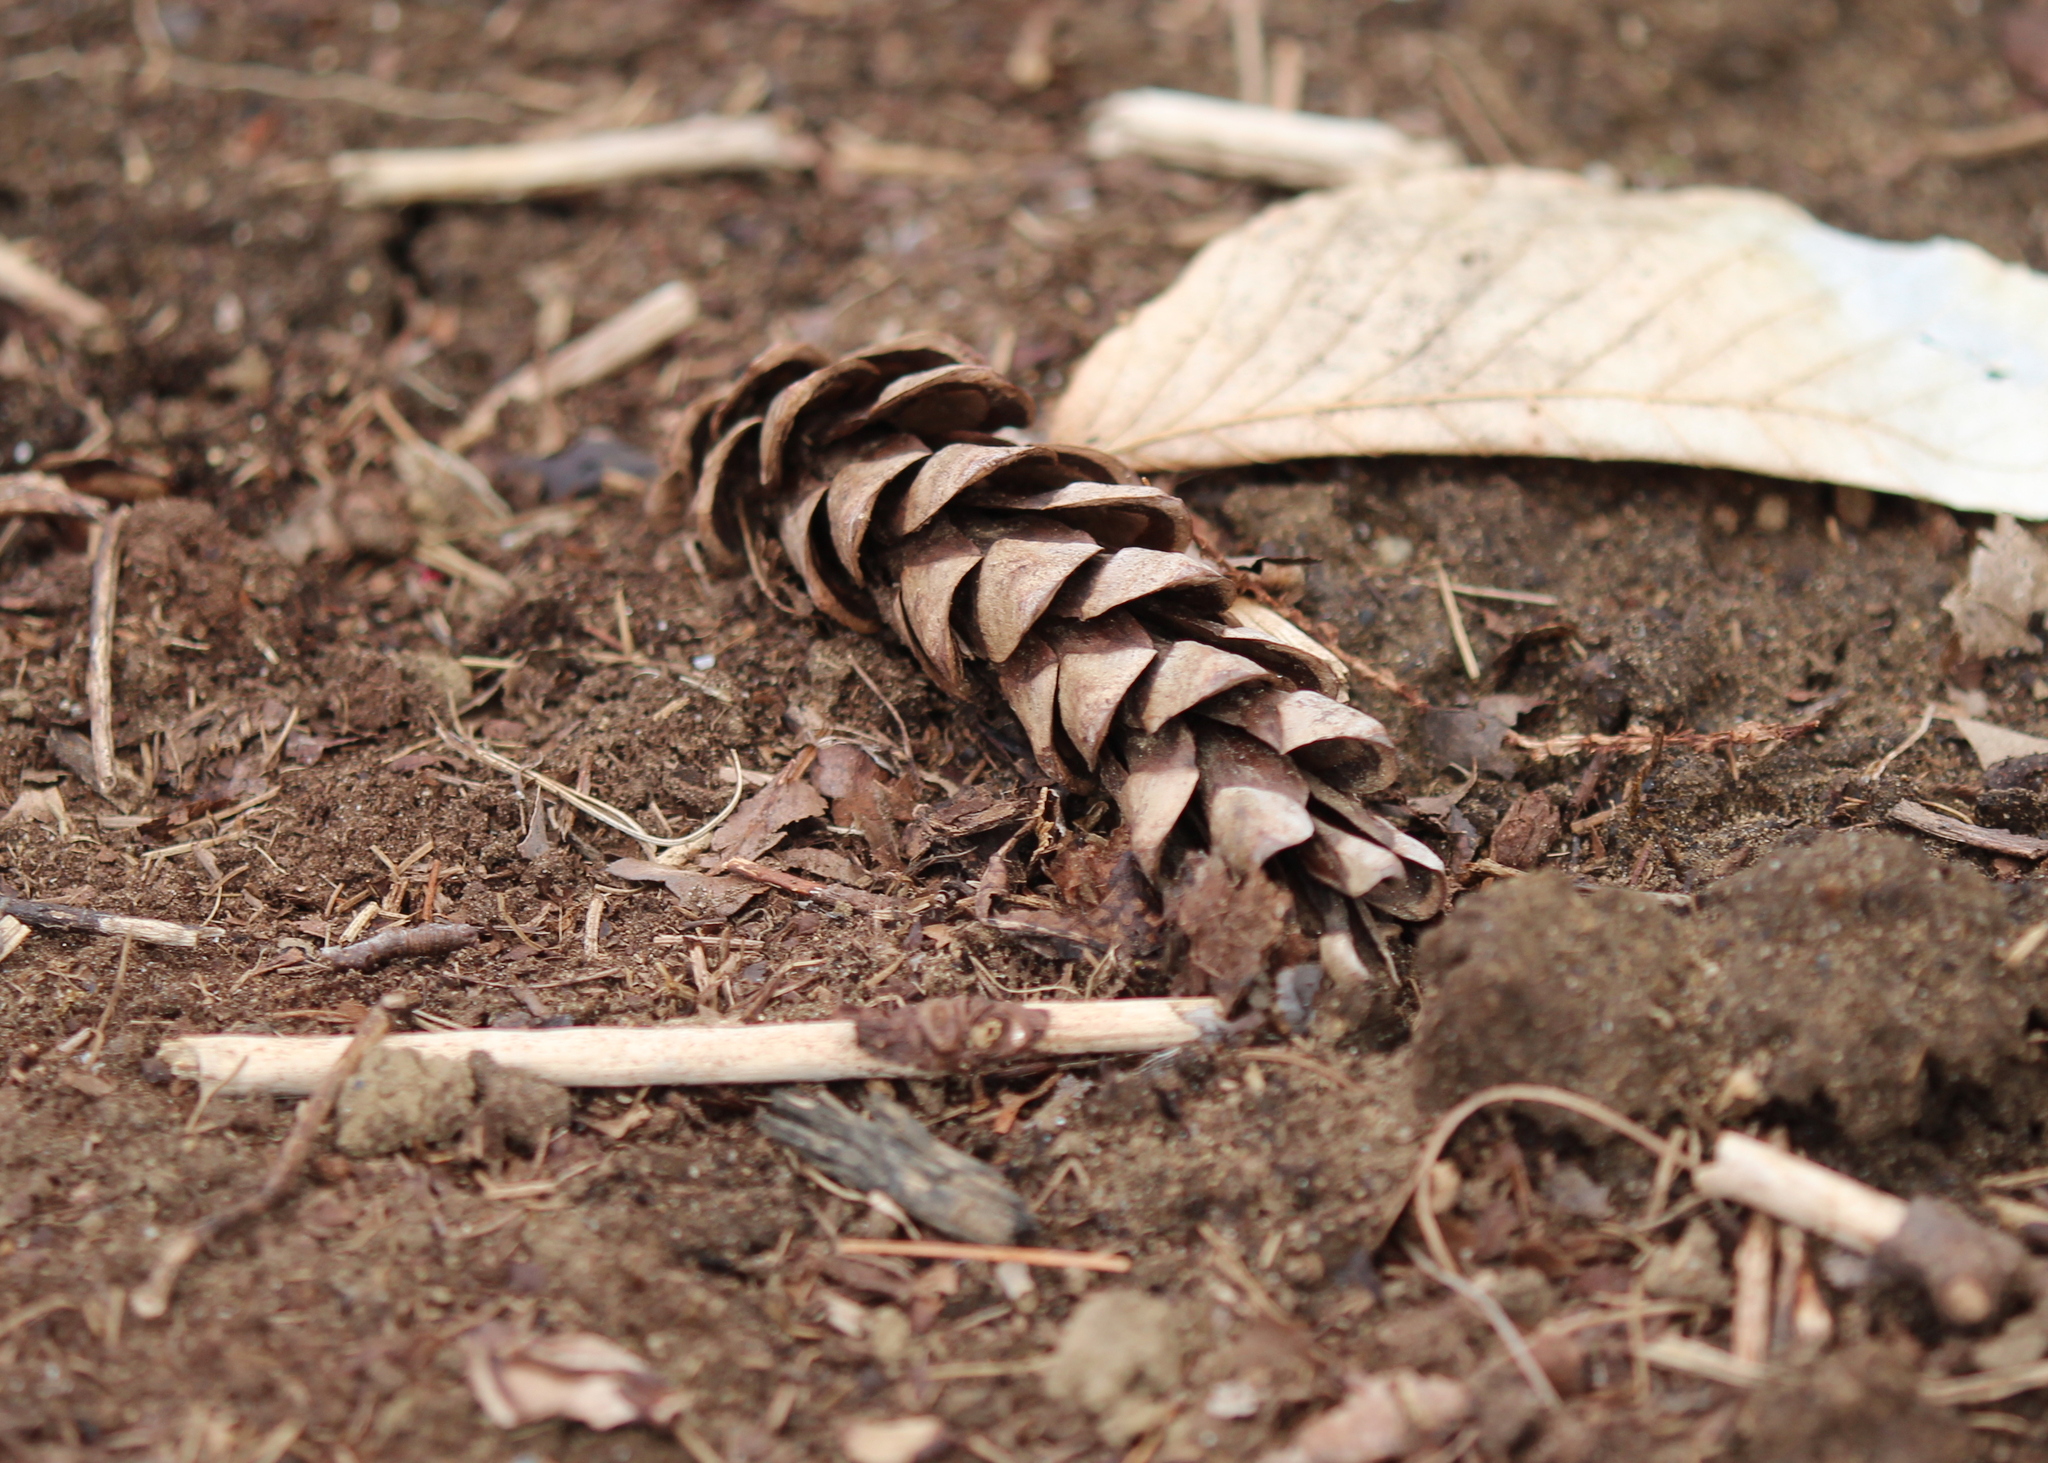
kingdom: Plantae
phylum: Tracheophyta
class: Pinopsida
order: Pinales
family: Pinaceae
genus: Pinus
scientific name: Pinus strobus
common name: Weymouth pine
